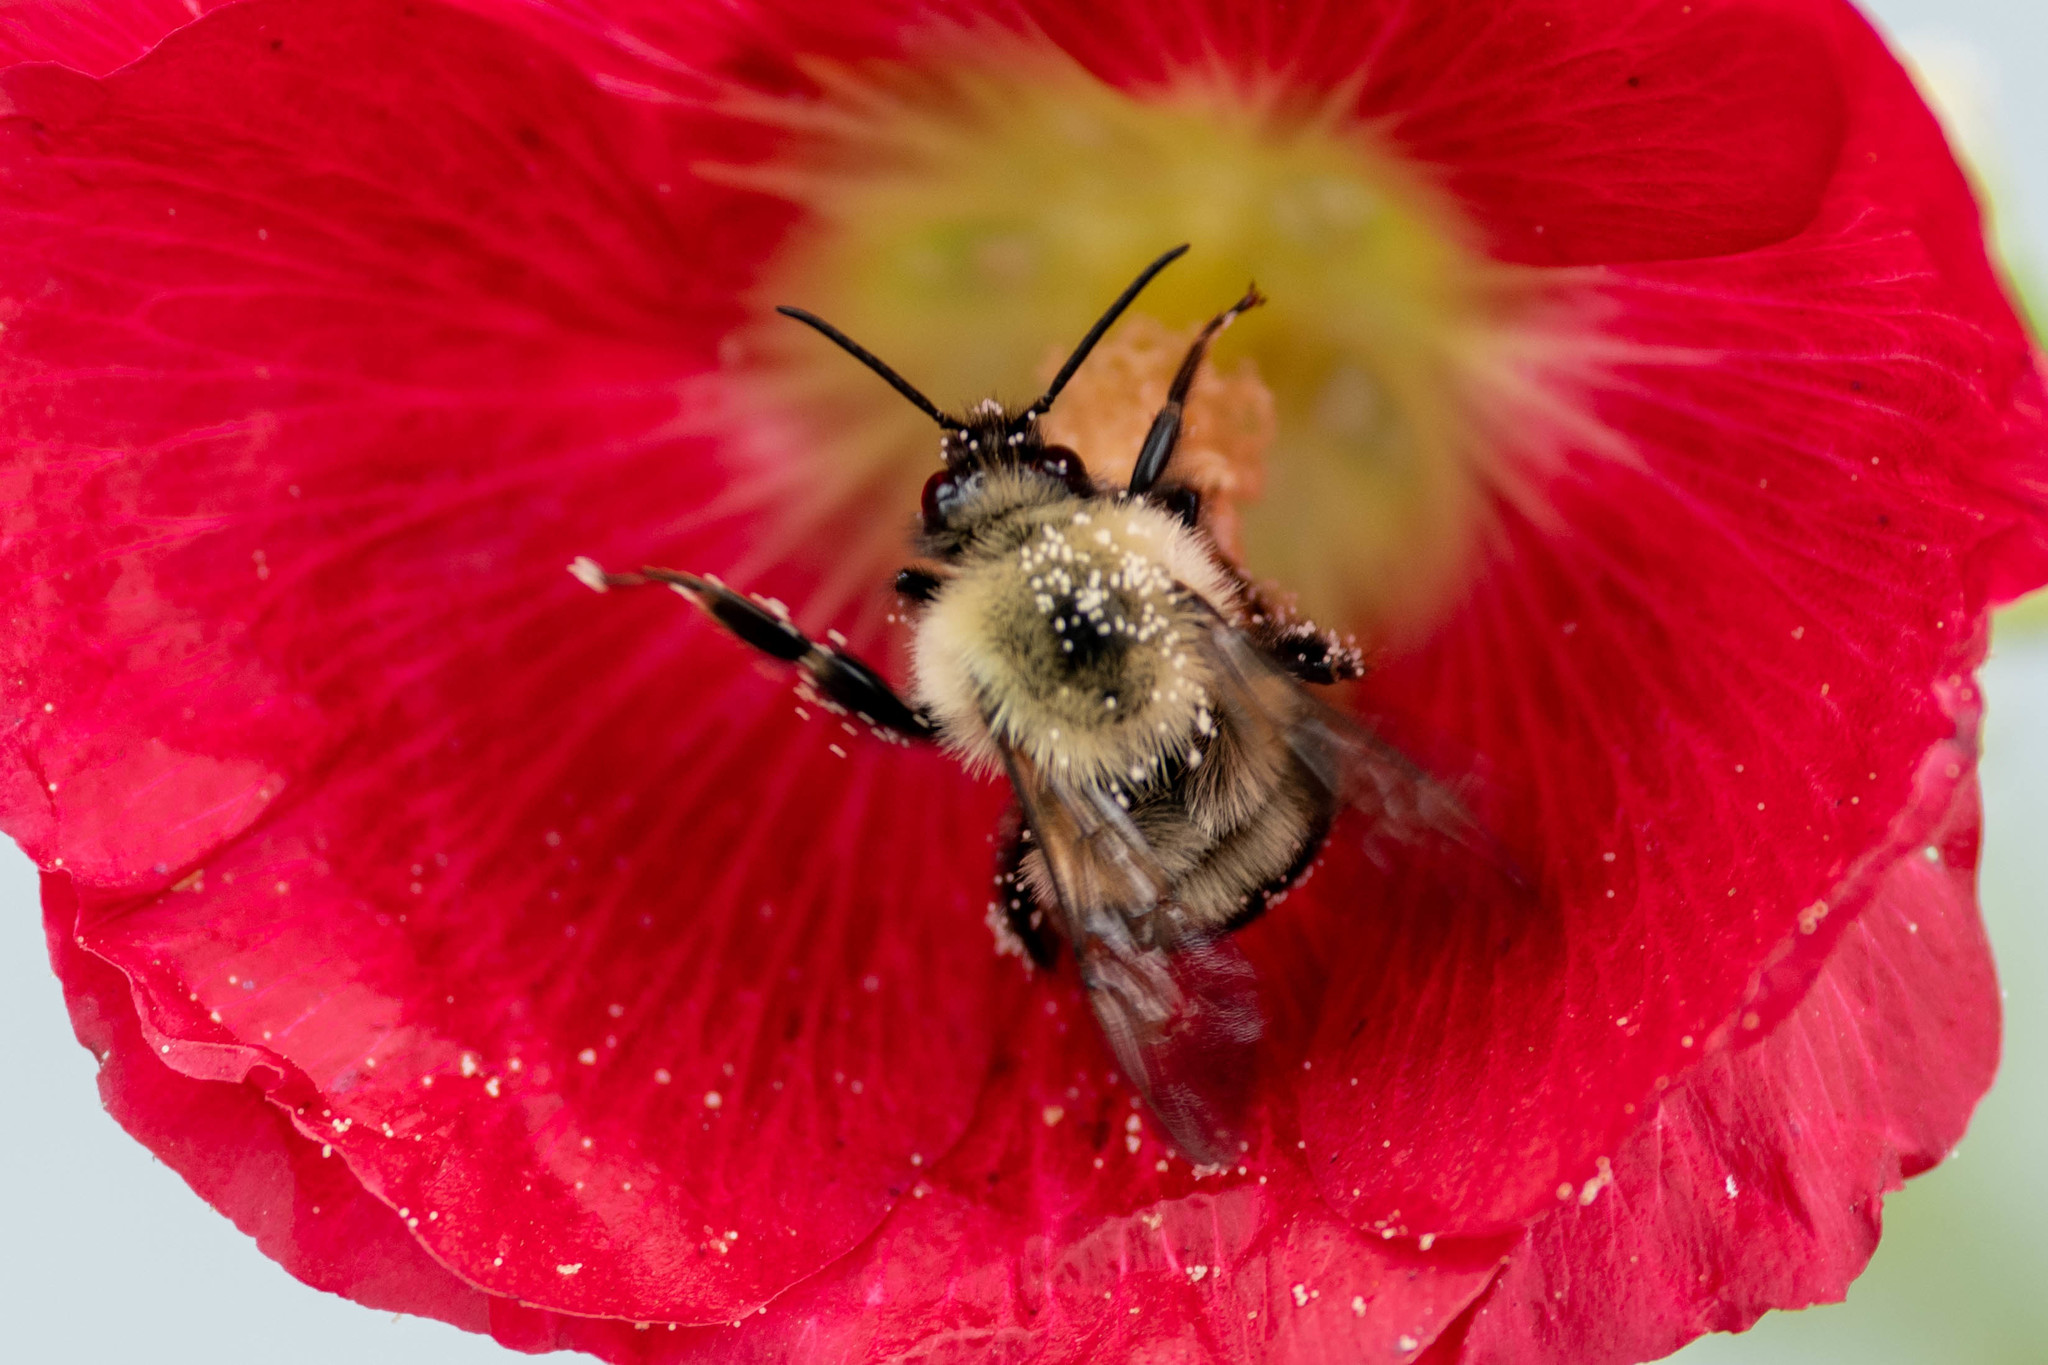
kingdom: Animalia
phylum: Arthropoda
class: Insecta
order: Hymenoptera
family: Apidae
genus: Bombus
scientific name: Bombus bimaculatus
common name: Two-spotted bumble bee
